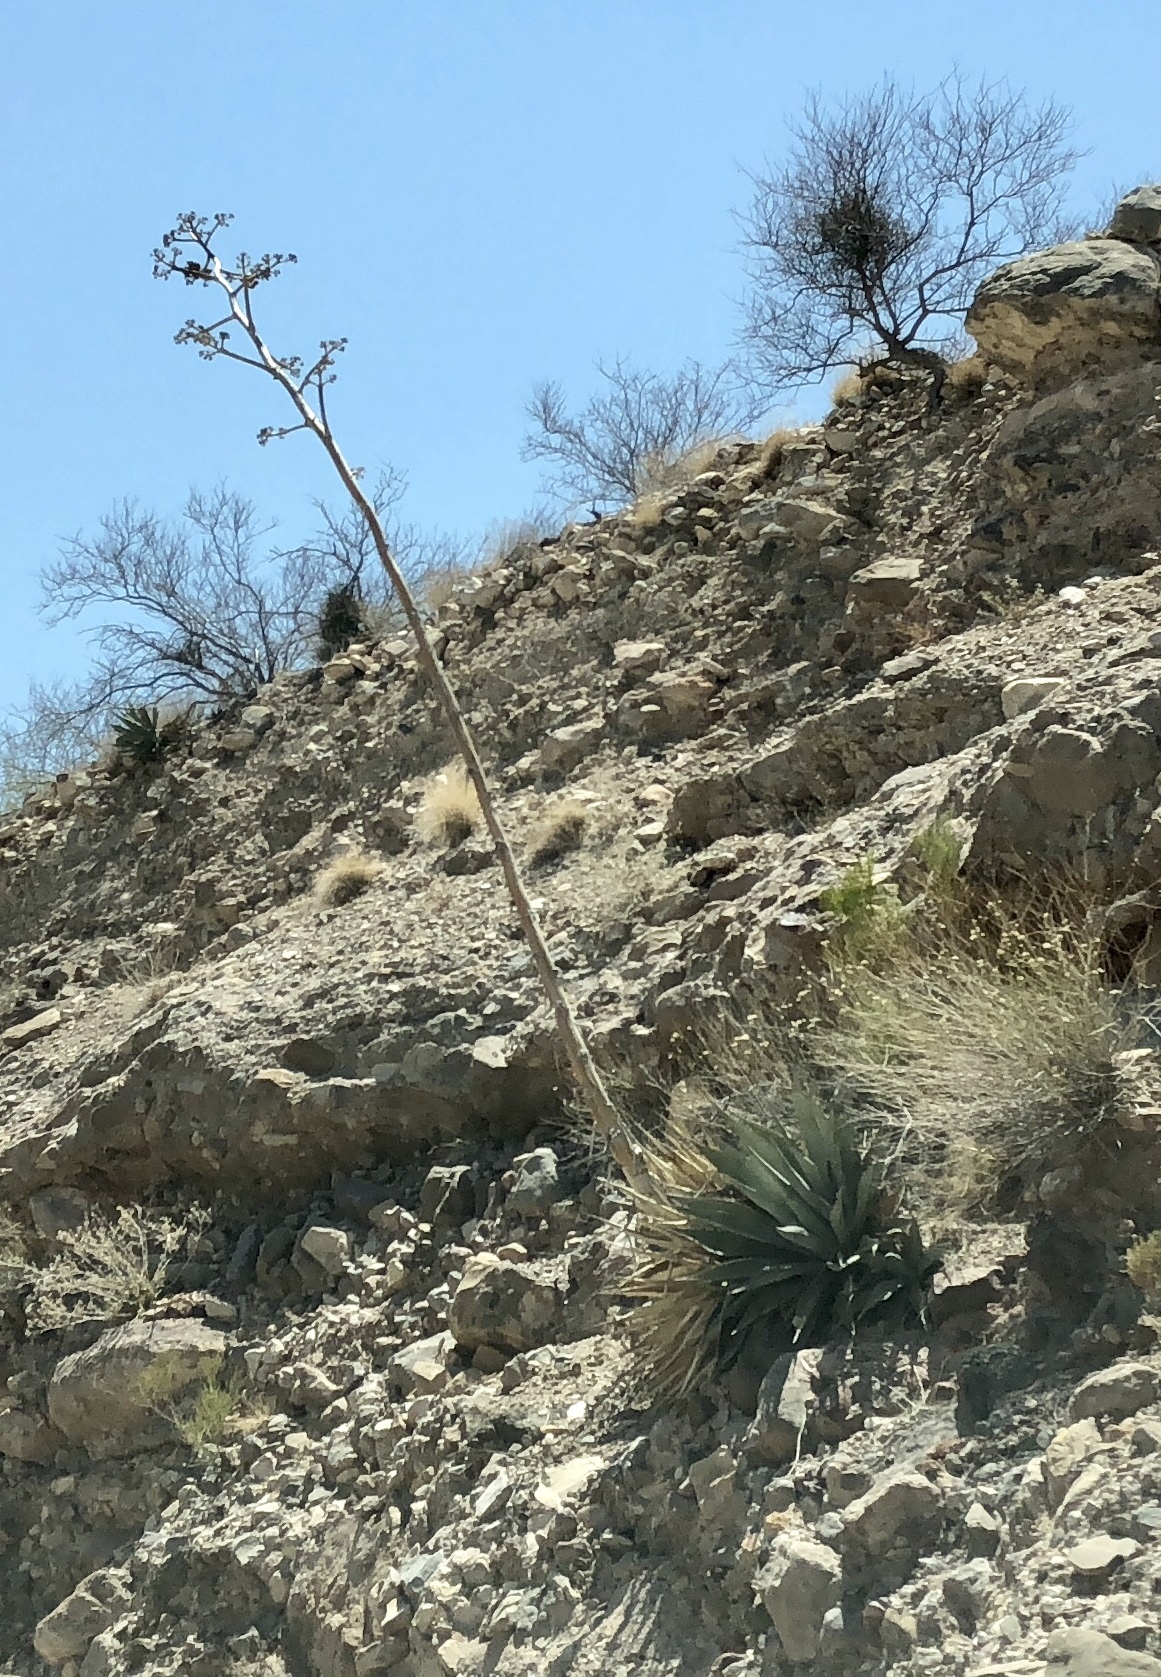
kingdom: Plantae
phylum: Tracheophyta
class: Liliopsida
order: Asparagales
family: Asparagaceae
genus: Agave
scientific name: Agave chrysantha
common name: Golden-flowered agave
